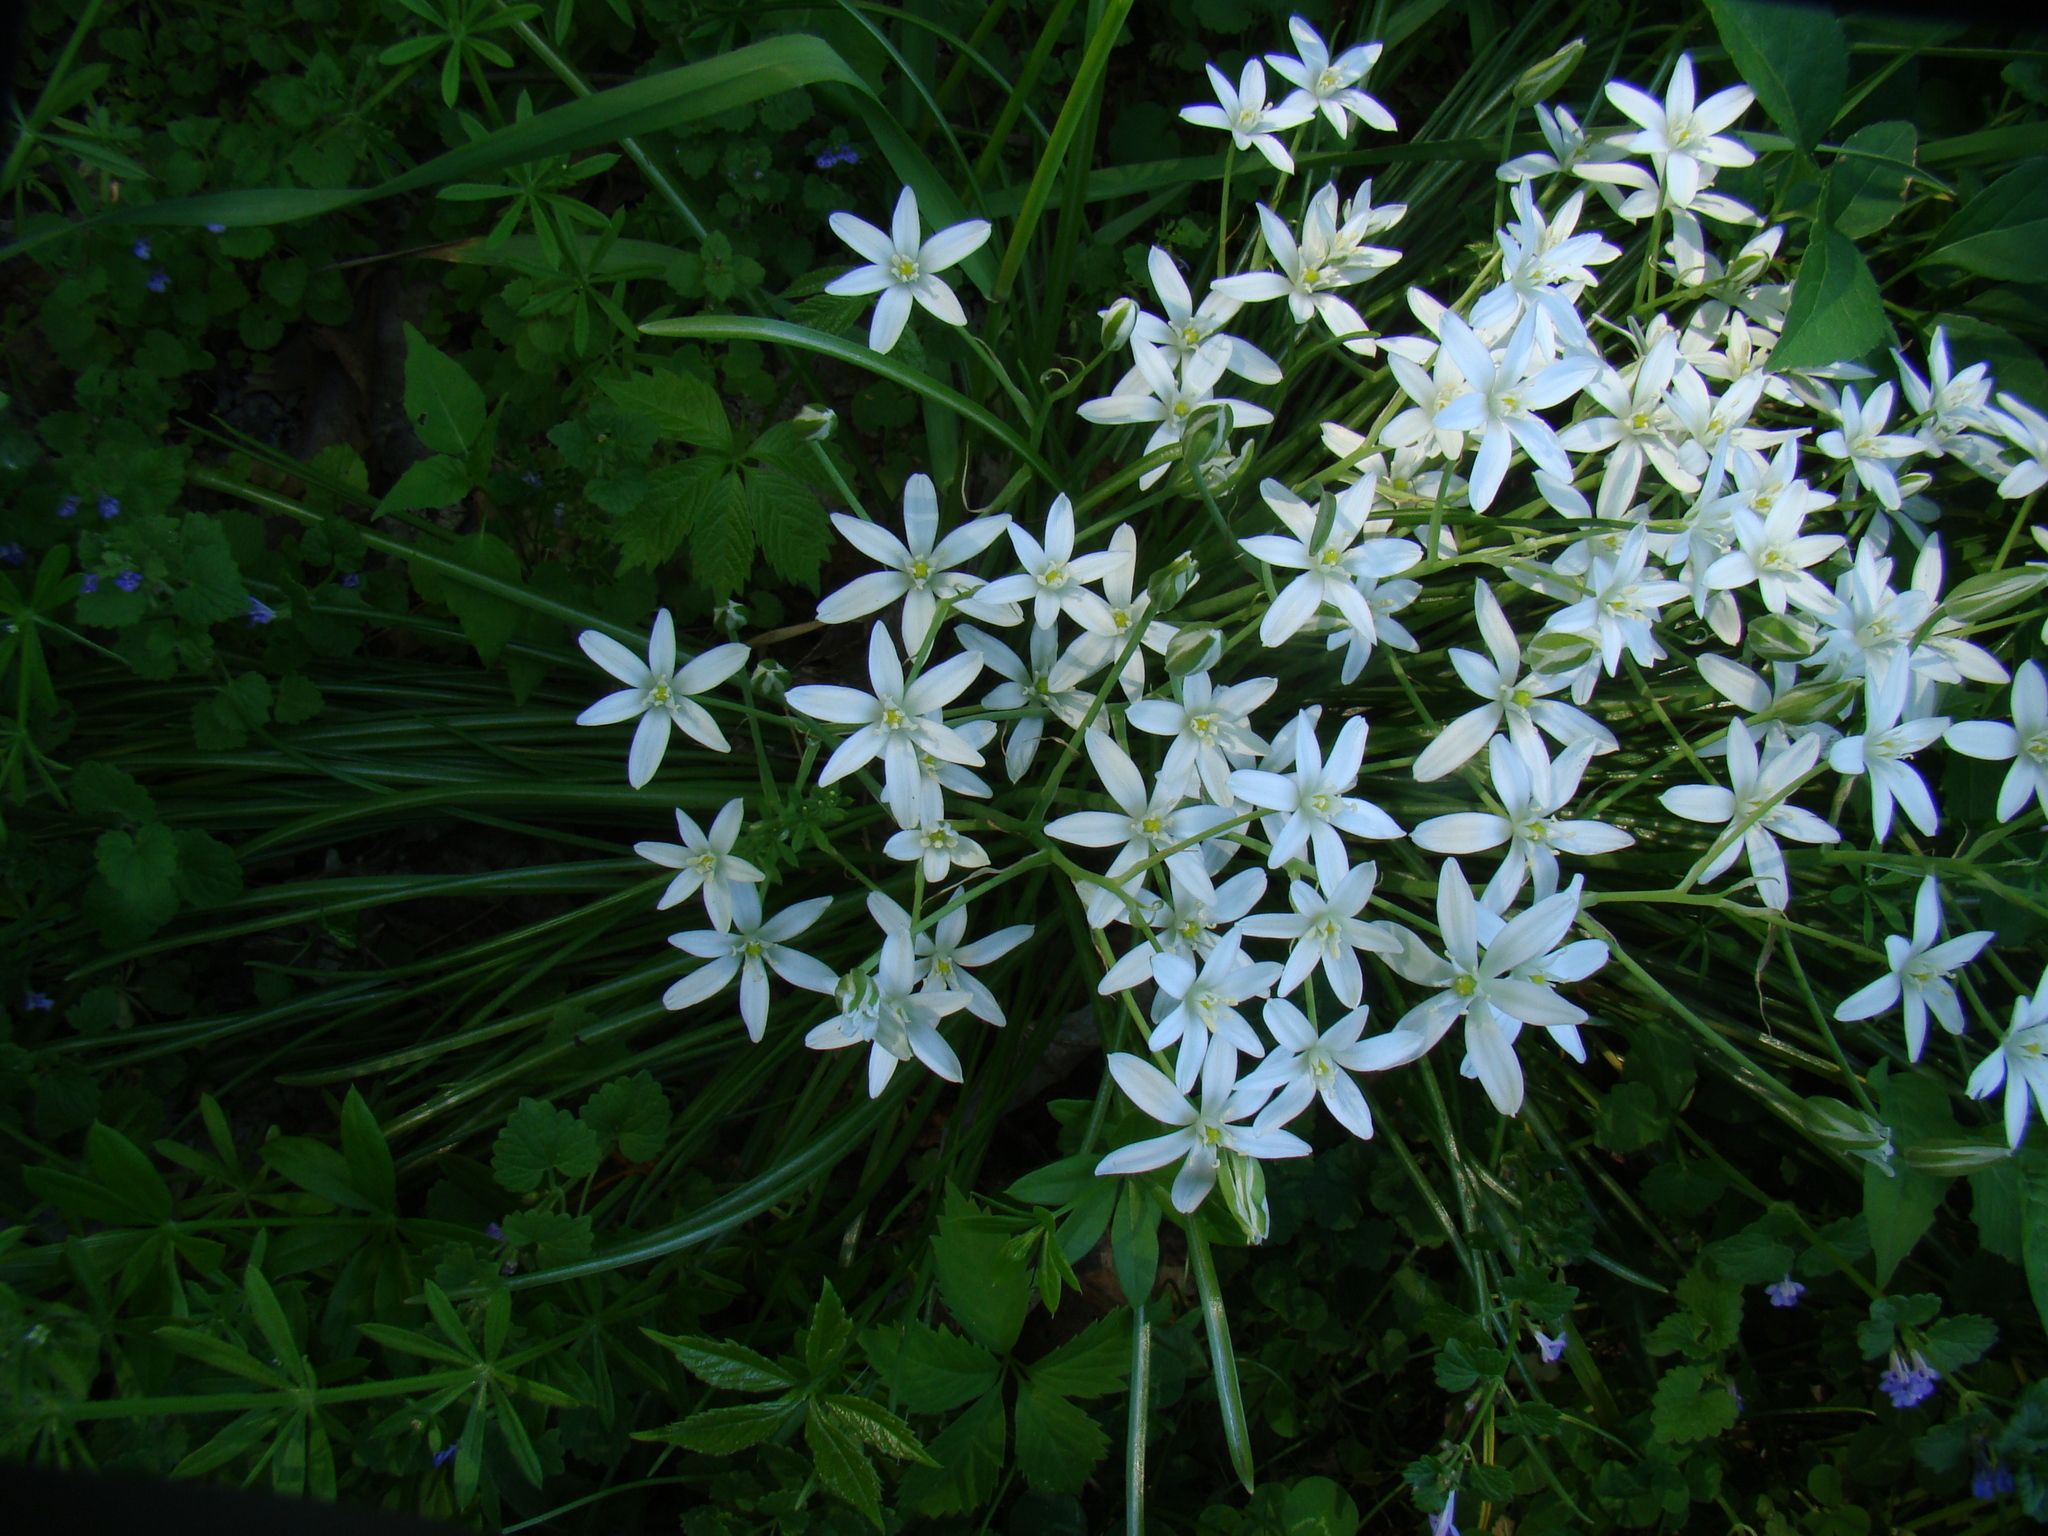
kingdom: Plantae
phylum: Tracheophyta
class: Liliopsida
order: Asparagales
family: Asparagaceae
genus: Ornithogalum
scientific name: Ornithogalum umbellatum
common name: Garden star-of-bethlehem
